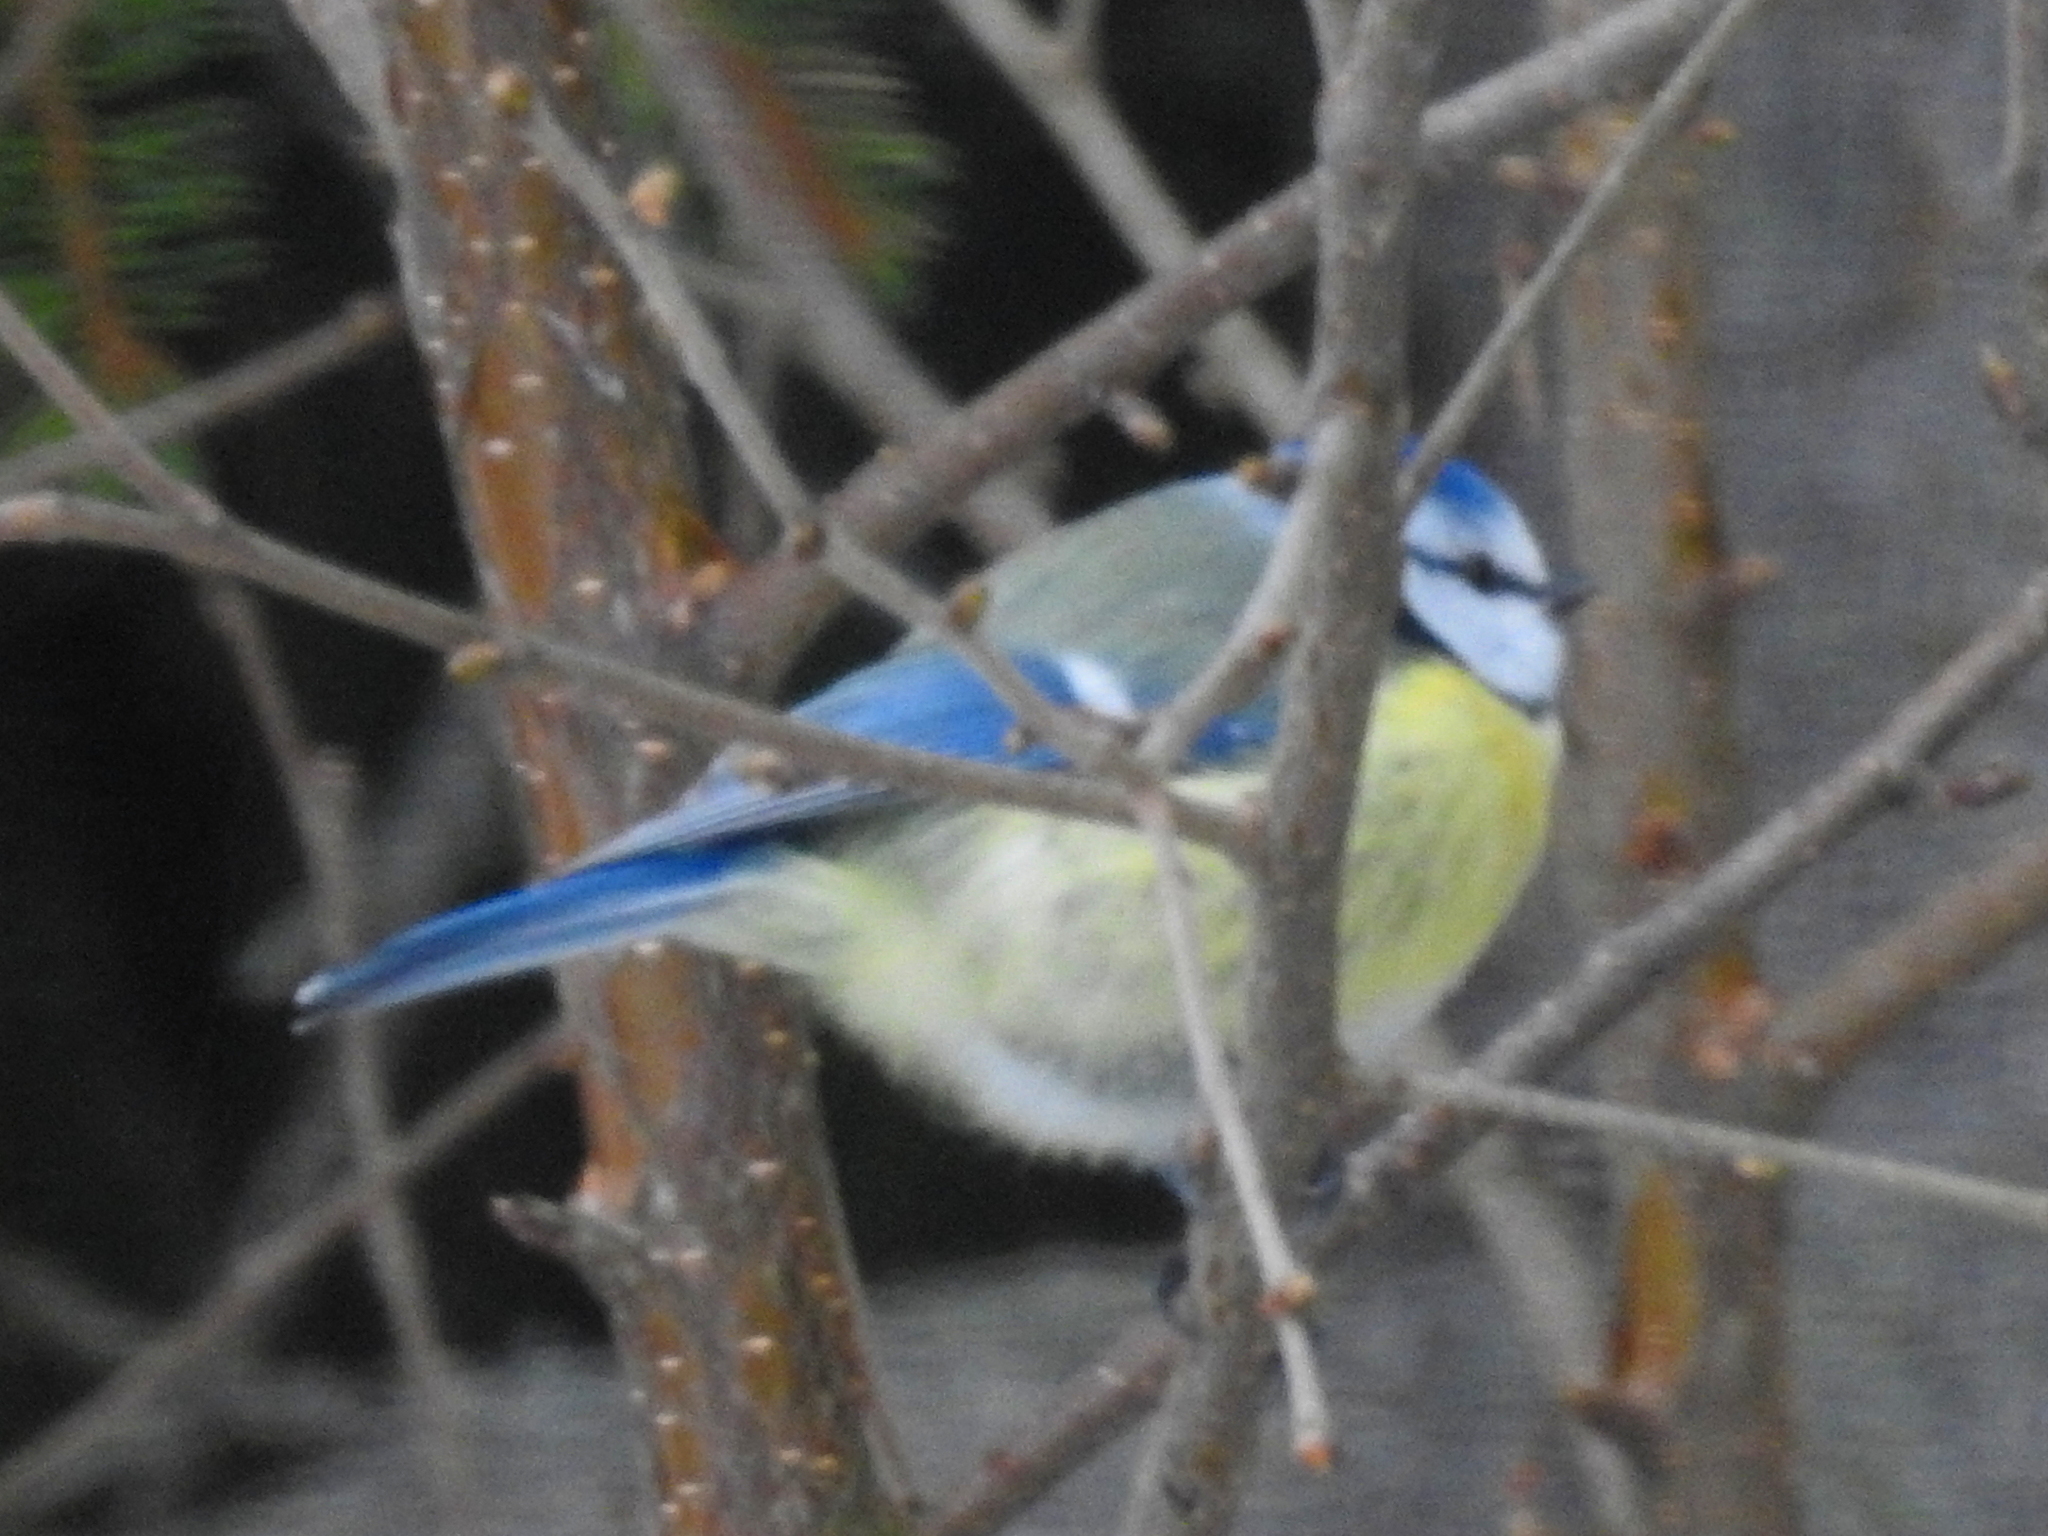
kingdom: Animalia
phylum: Chordata
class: Aves
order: Passeriformes
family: Paridae
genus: Cyanistes
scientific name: Cyanistes caeruleus
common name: Eurasian blue tit
